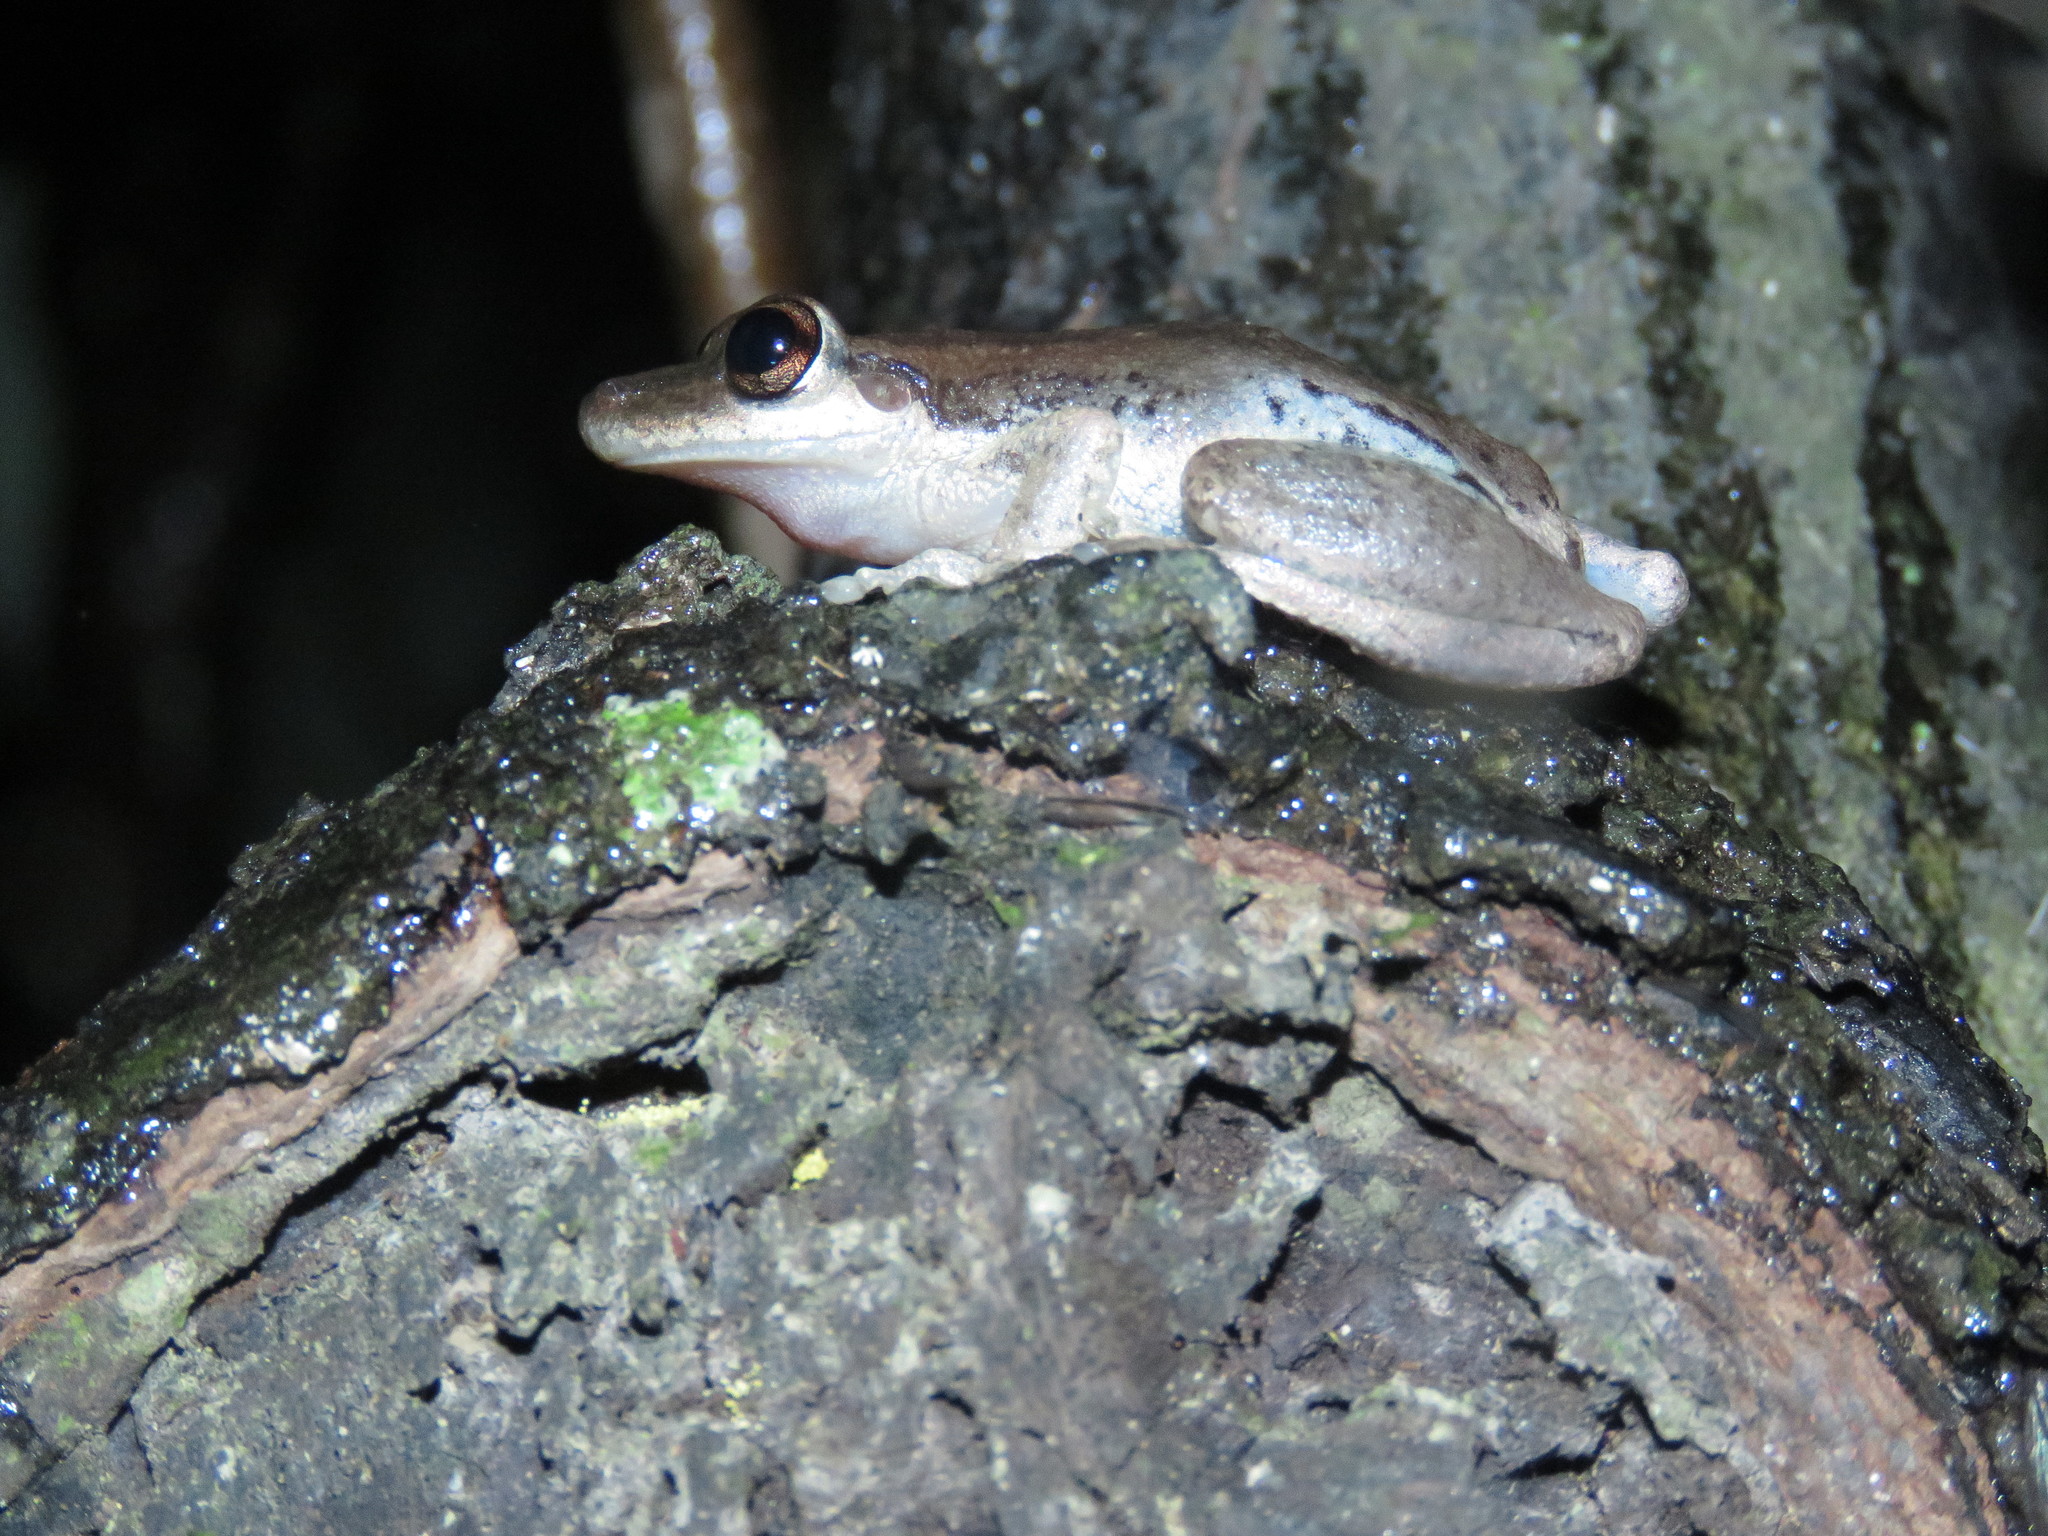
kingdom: Animalia
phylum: Chordata
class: Amphibia
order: Anura
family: Hylidae
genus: Scinax
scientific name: Scinax ruber
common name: Red snouted treefrog
